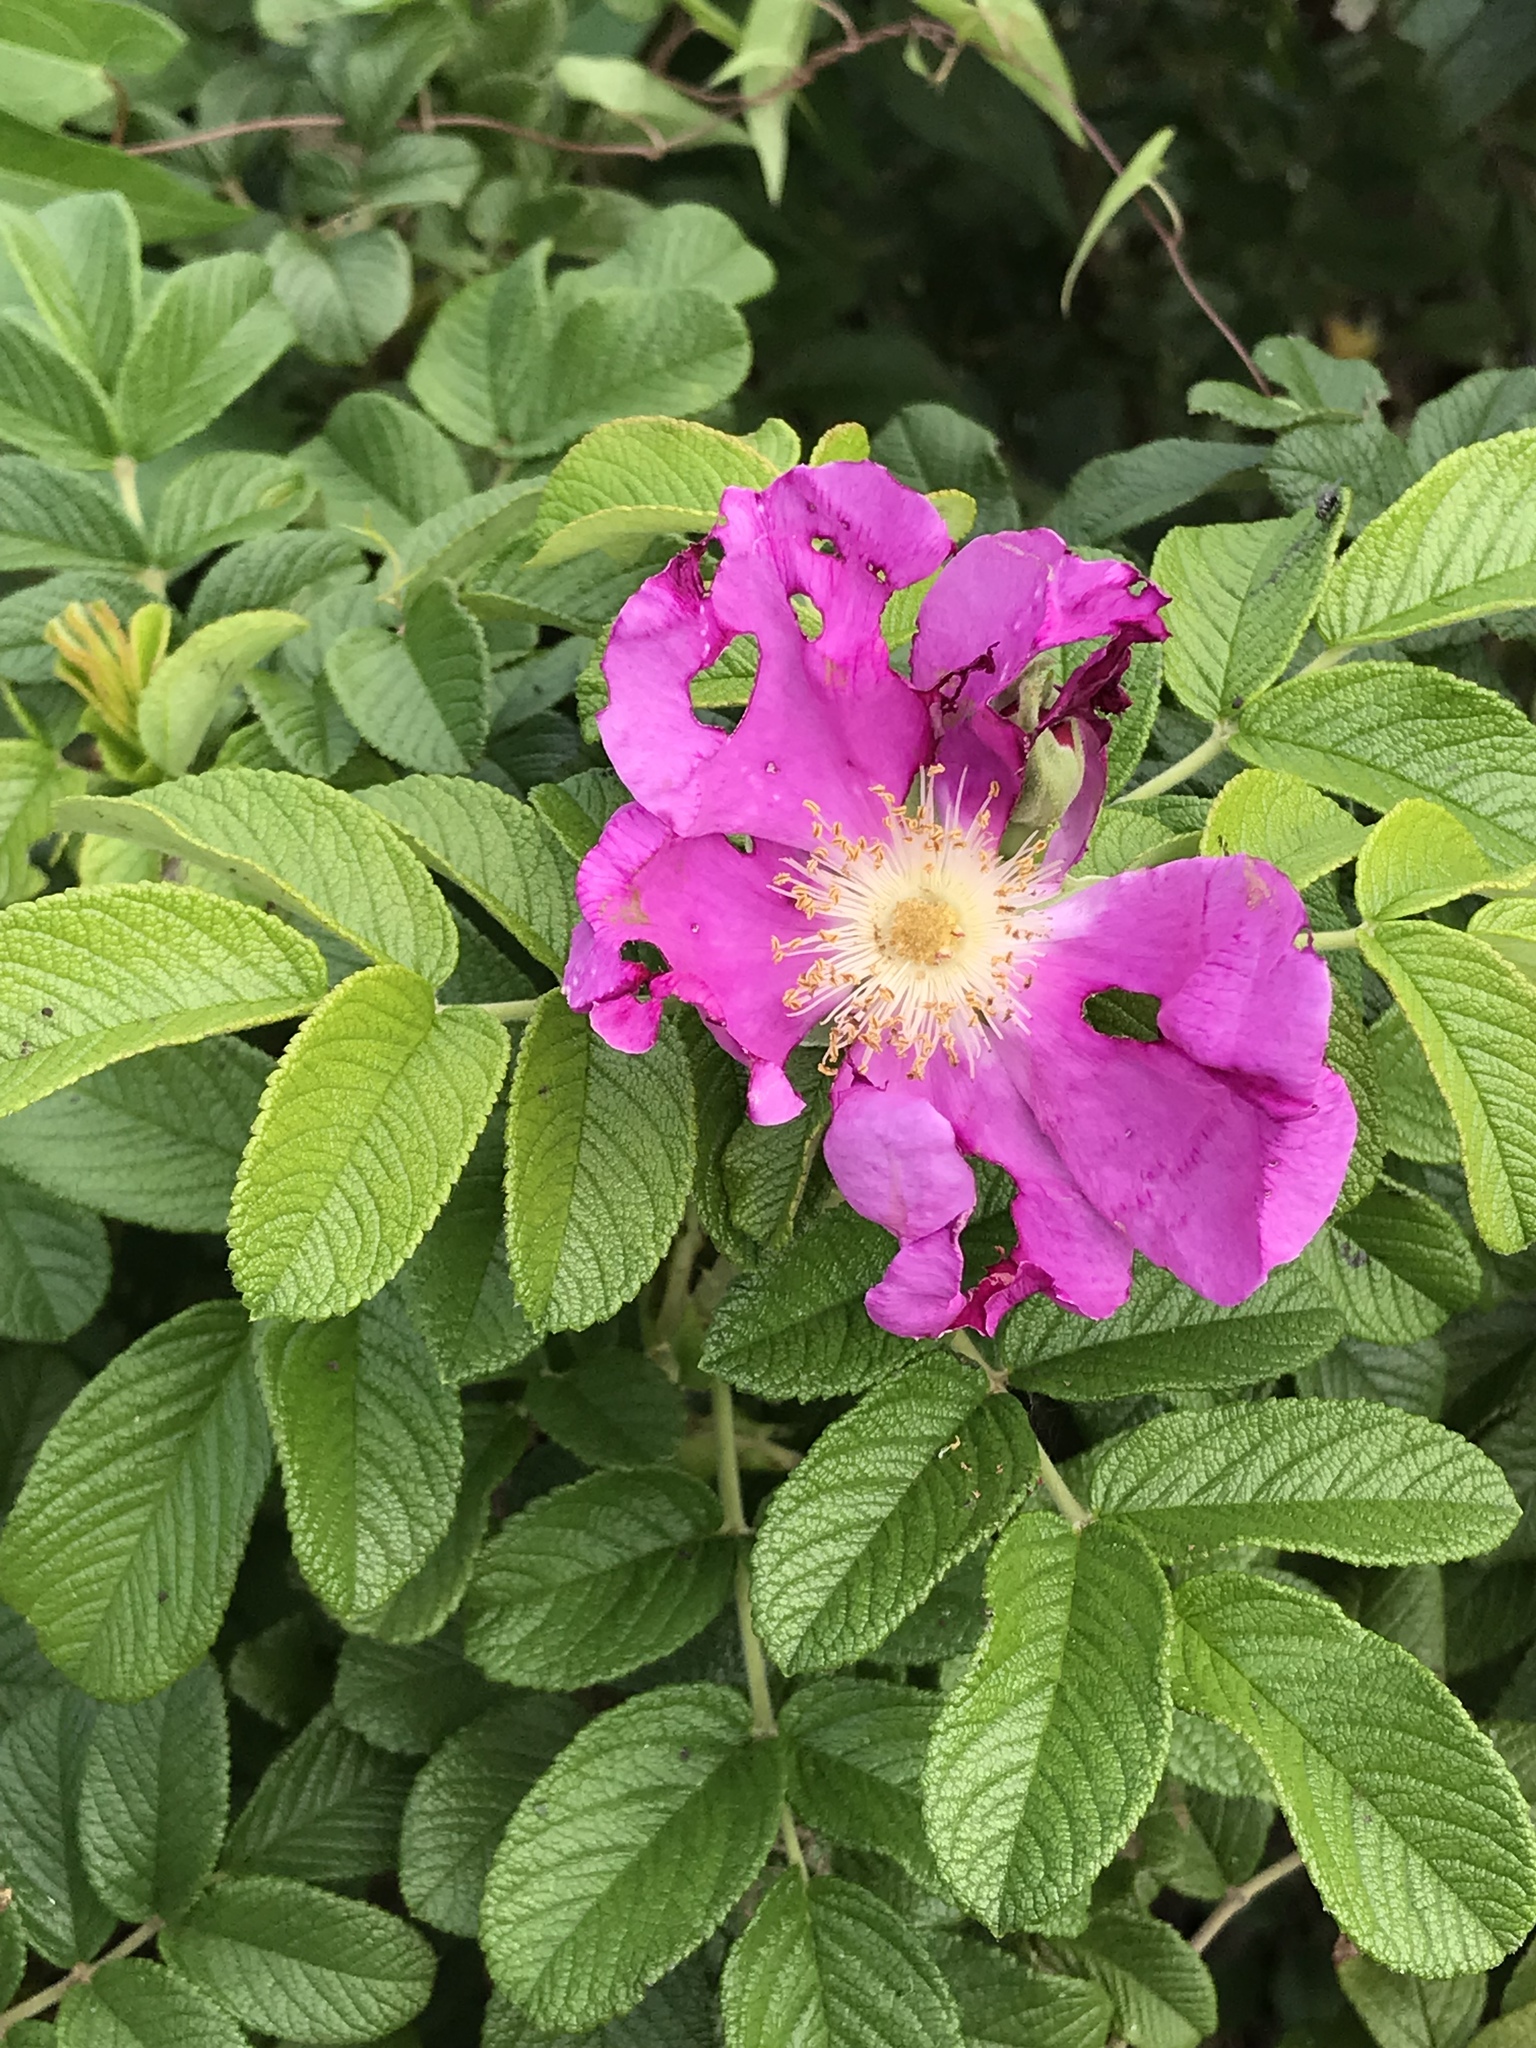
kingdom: Plantae
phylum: Tracheophyta
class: Magnoliopsida
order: Rosales
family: Rosaceae
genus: Rosa
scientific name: Rosa rugosa
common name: Japanese rose
